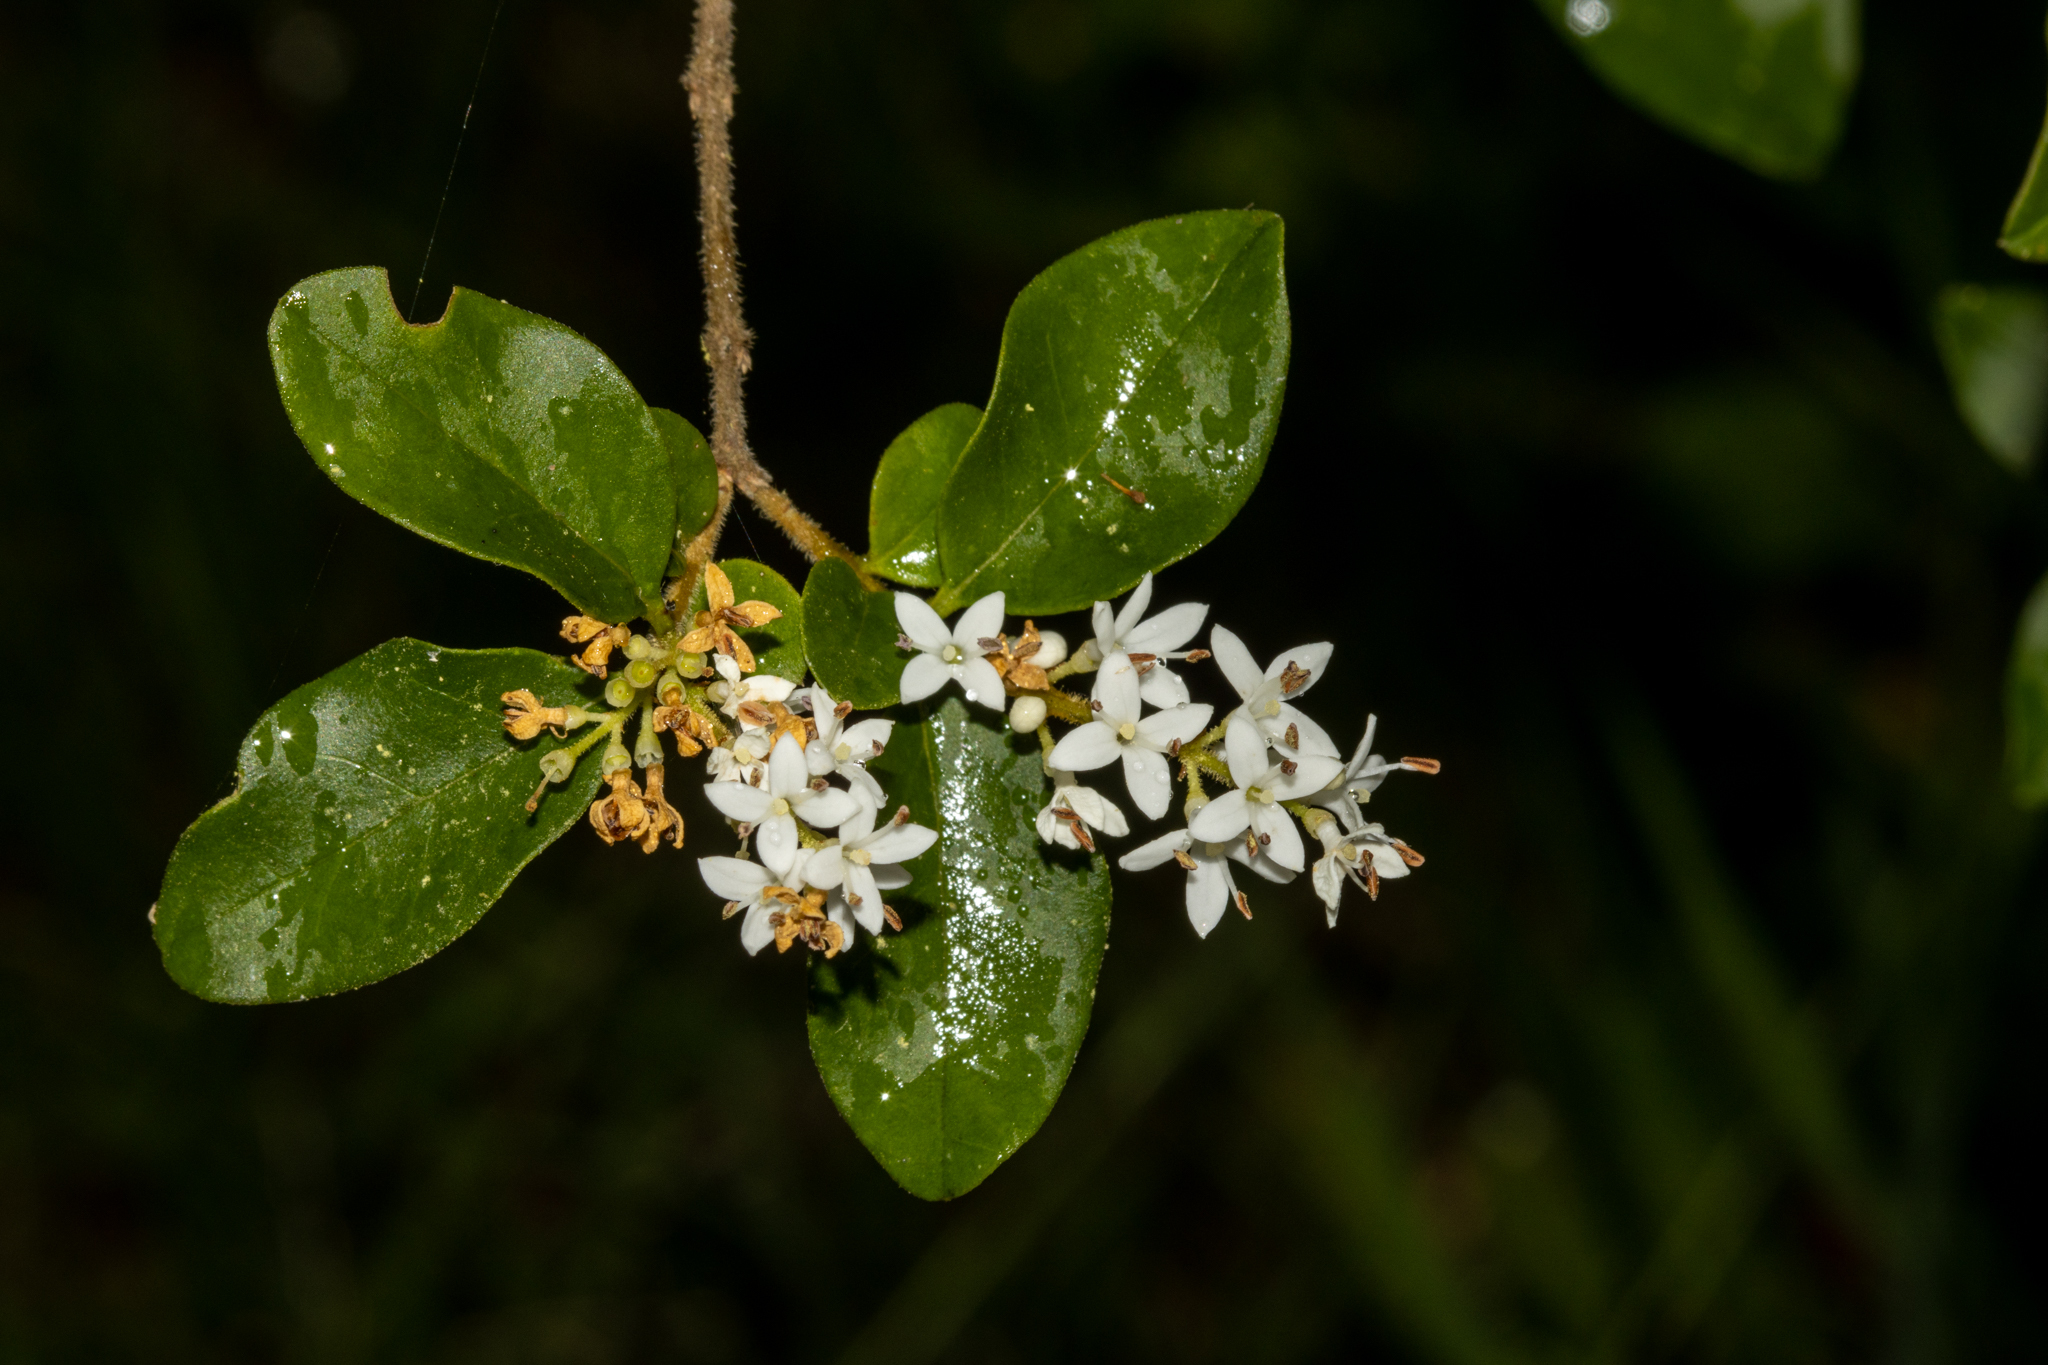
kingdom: Plantae
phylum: Tracheophyta
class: Magnoliopsida
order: Lamiales
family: Oleaceae
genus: Ligustrum
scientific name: Ligustrum sinense
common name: Chinese privet
